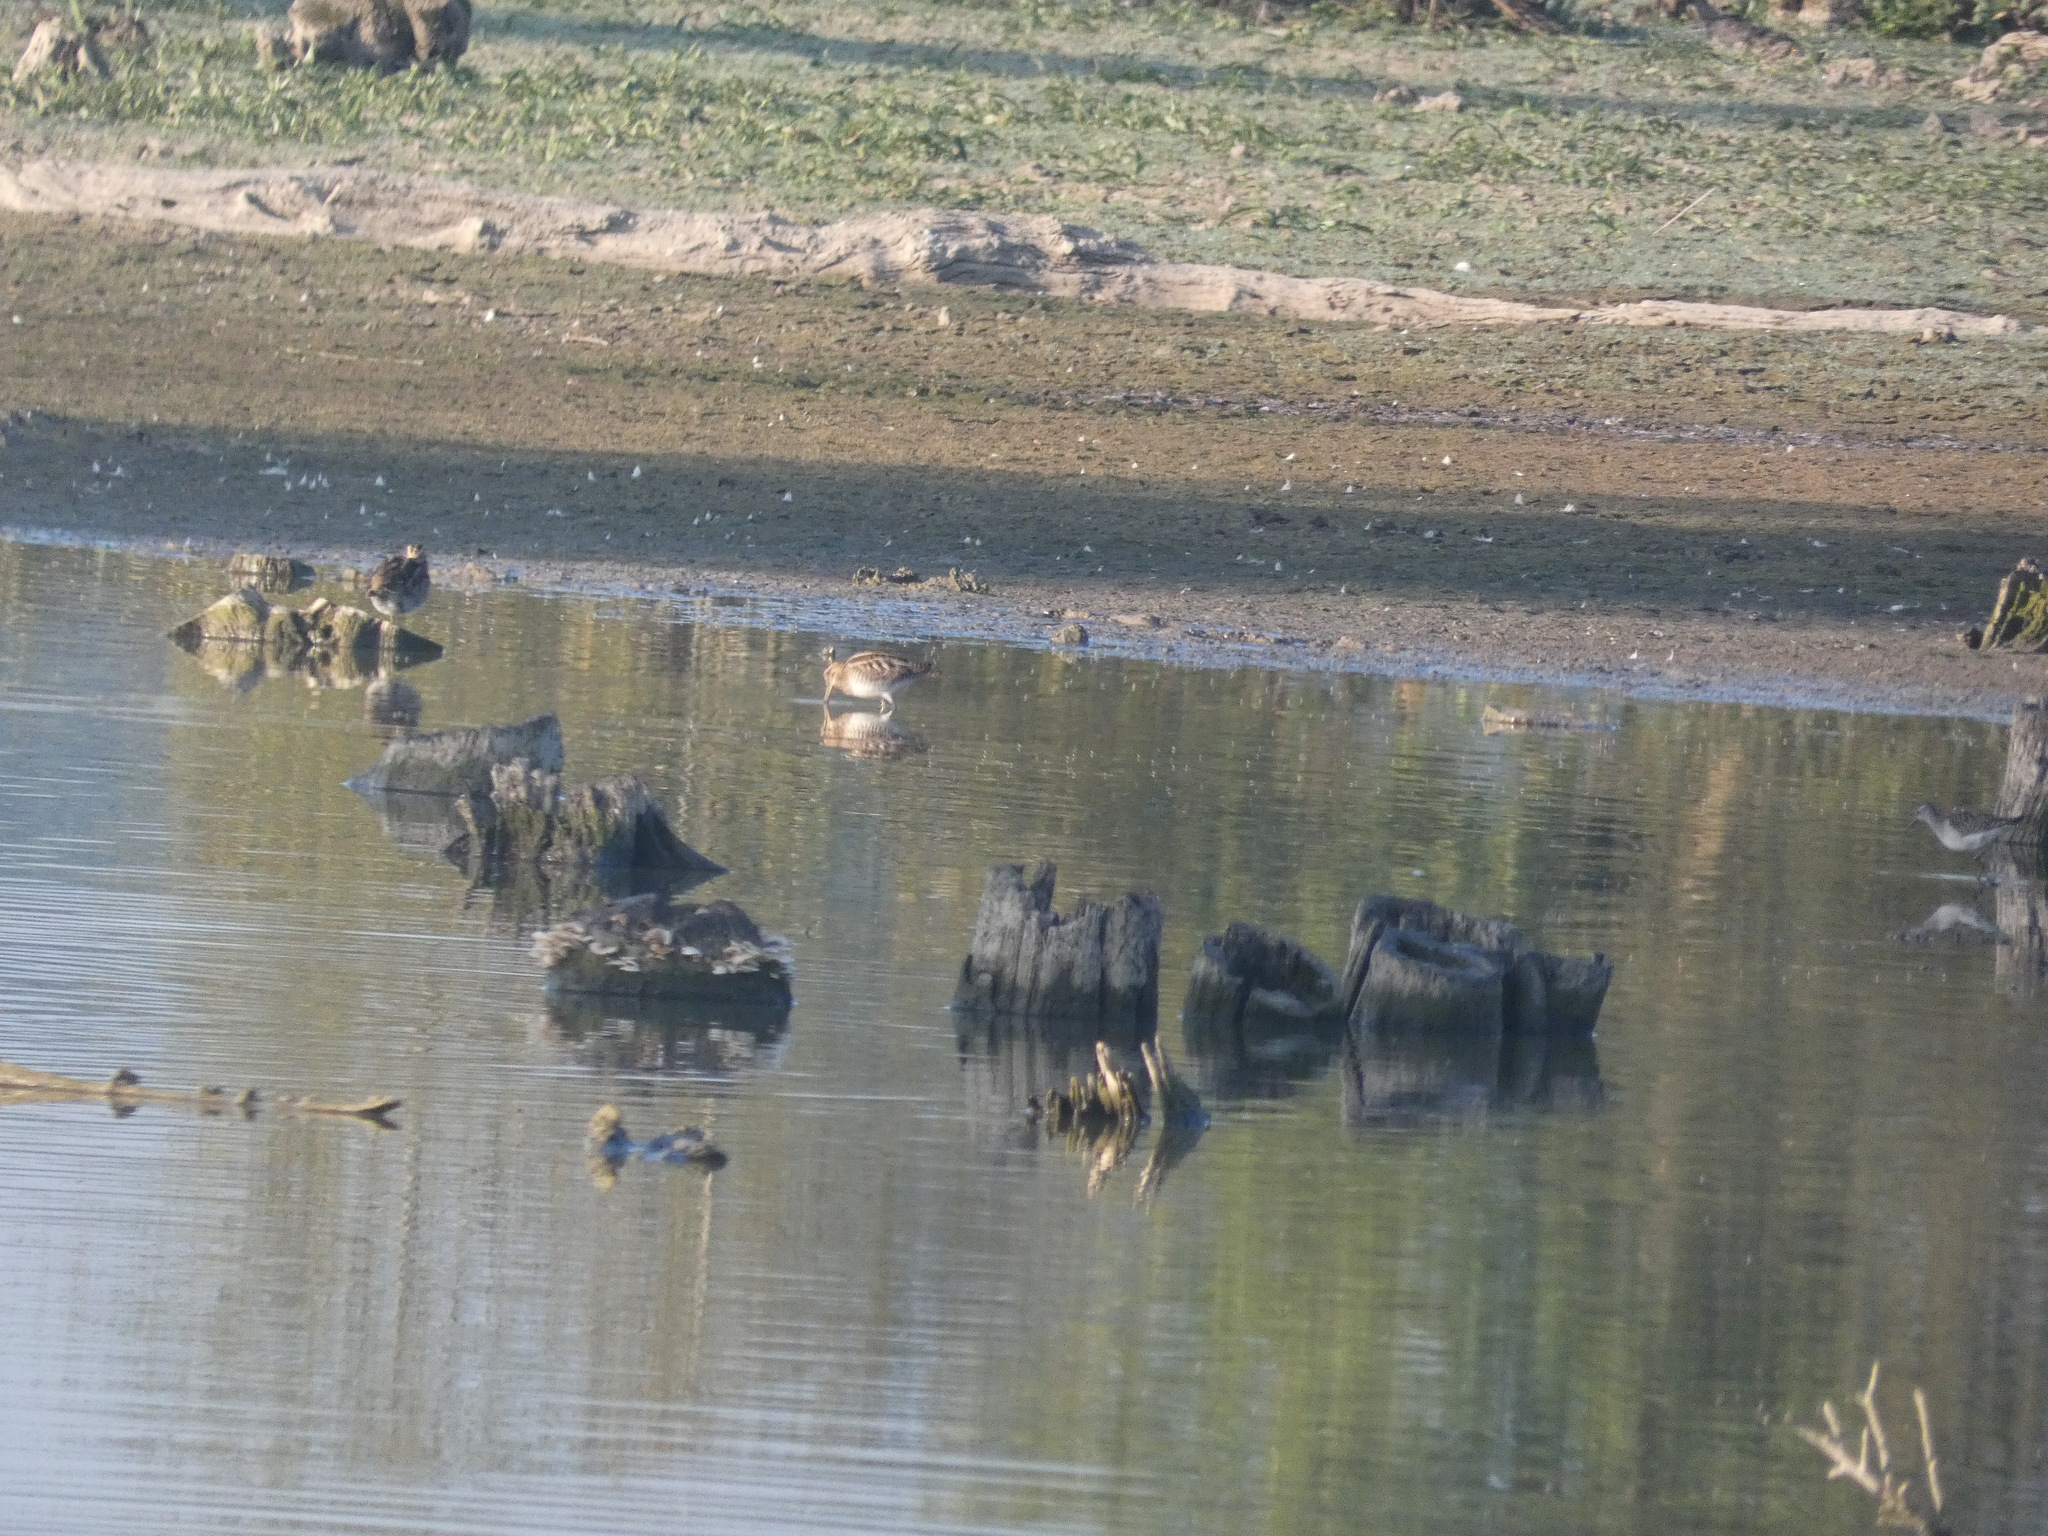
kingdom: Animalia
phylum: Chordata
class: Aves
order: Charadriiformes
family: Scolopacidae
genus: Gallinago
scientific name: Gallinago gallinago
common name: Common snipe
